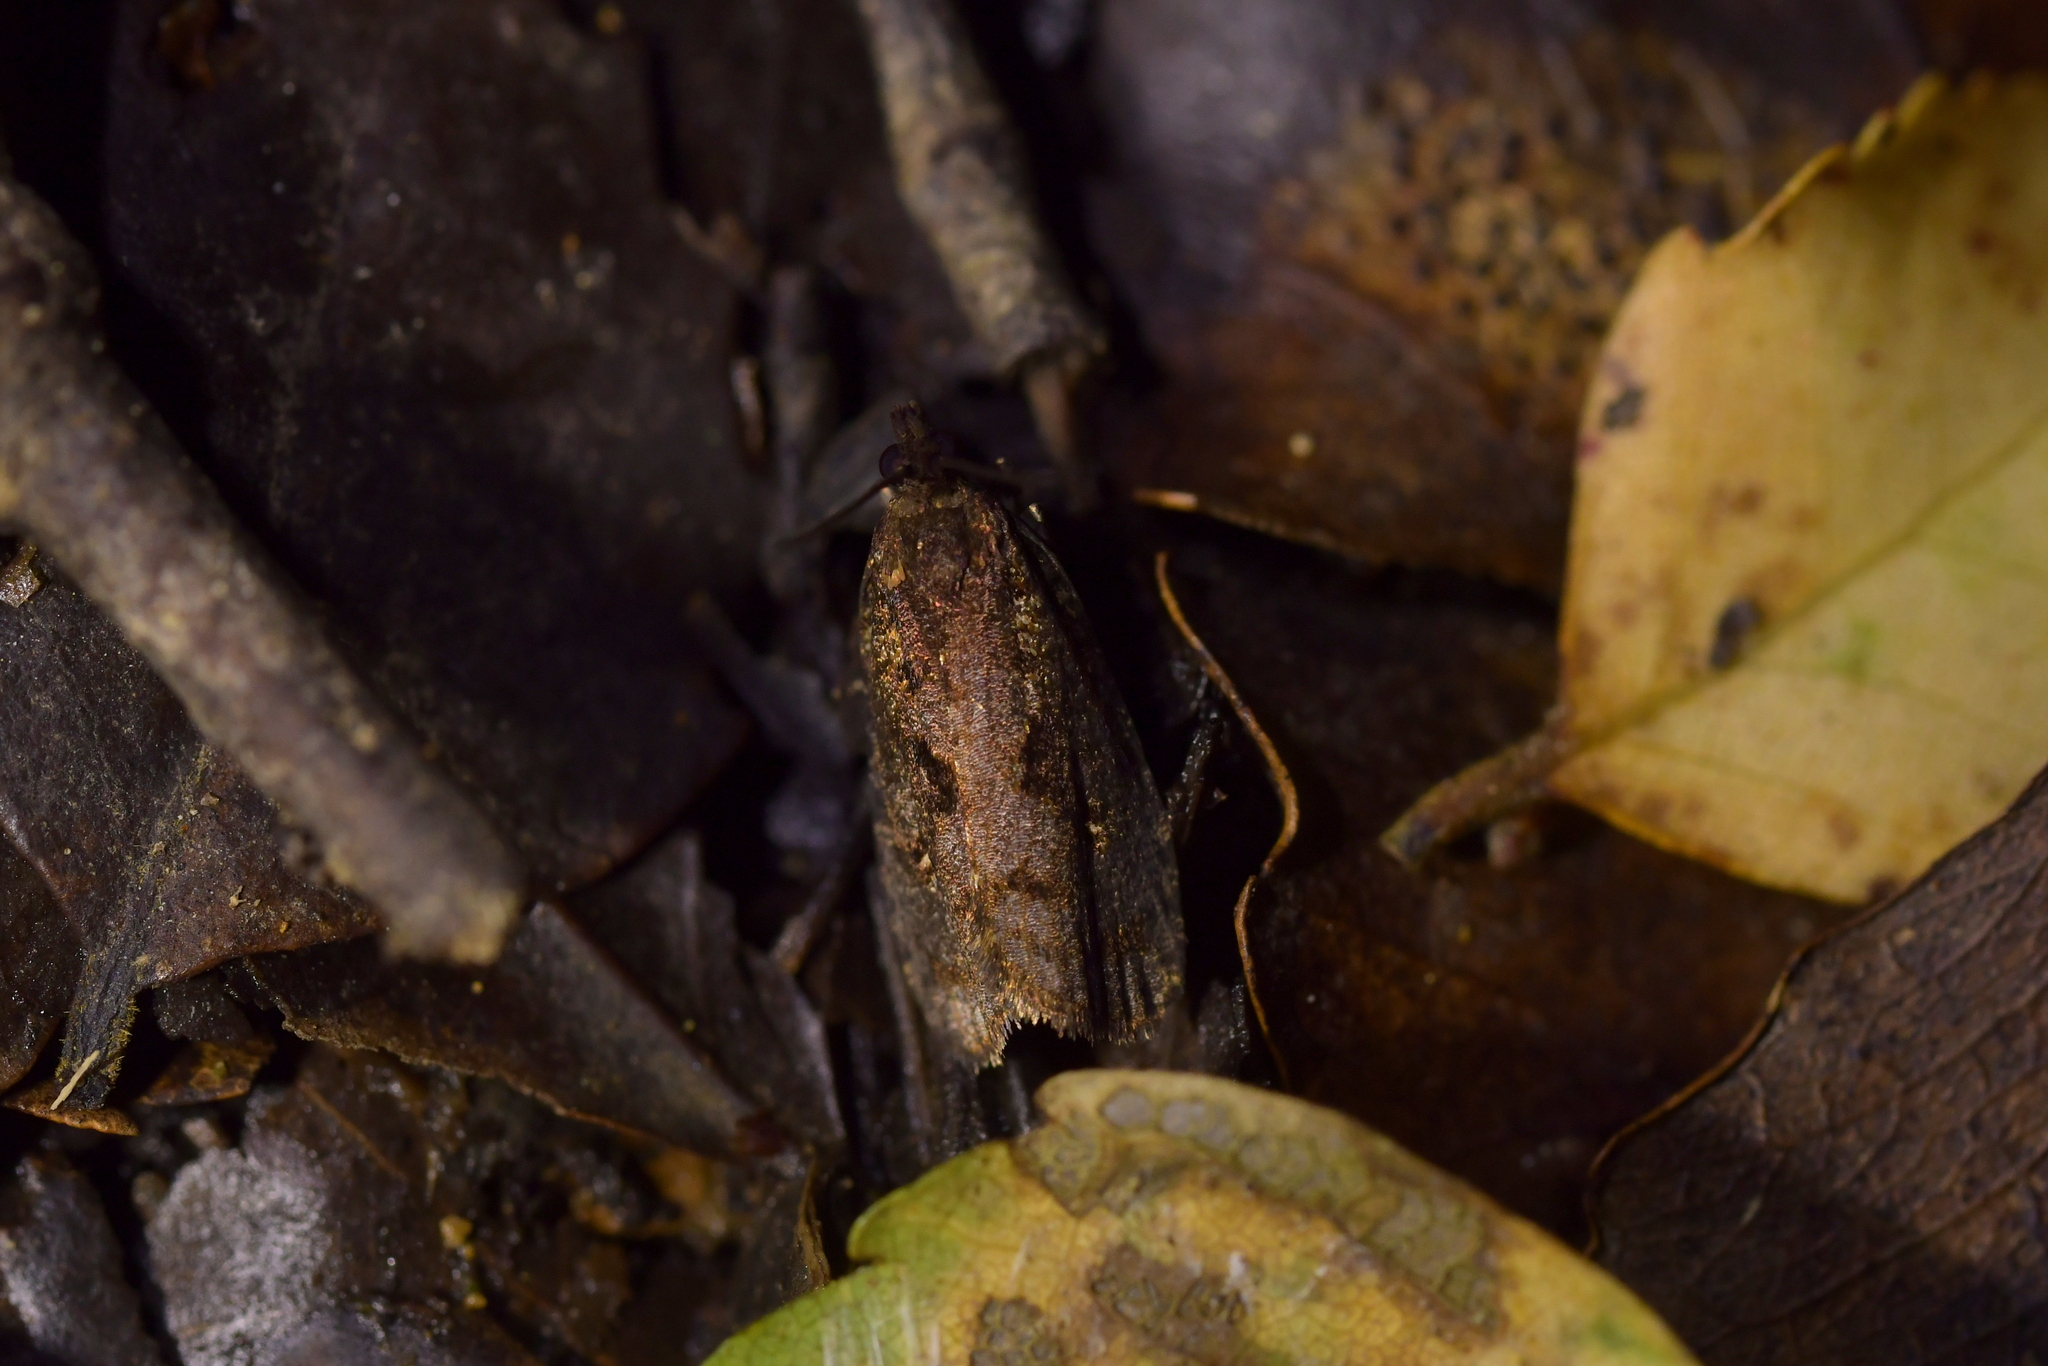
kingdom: Animalia
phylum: Arthropoda
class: Insecta
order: Lepidoptera
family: Tortricidae
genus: Cryptaspasma
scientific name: Cryptaspasma querula
